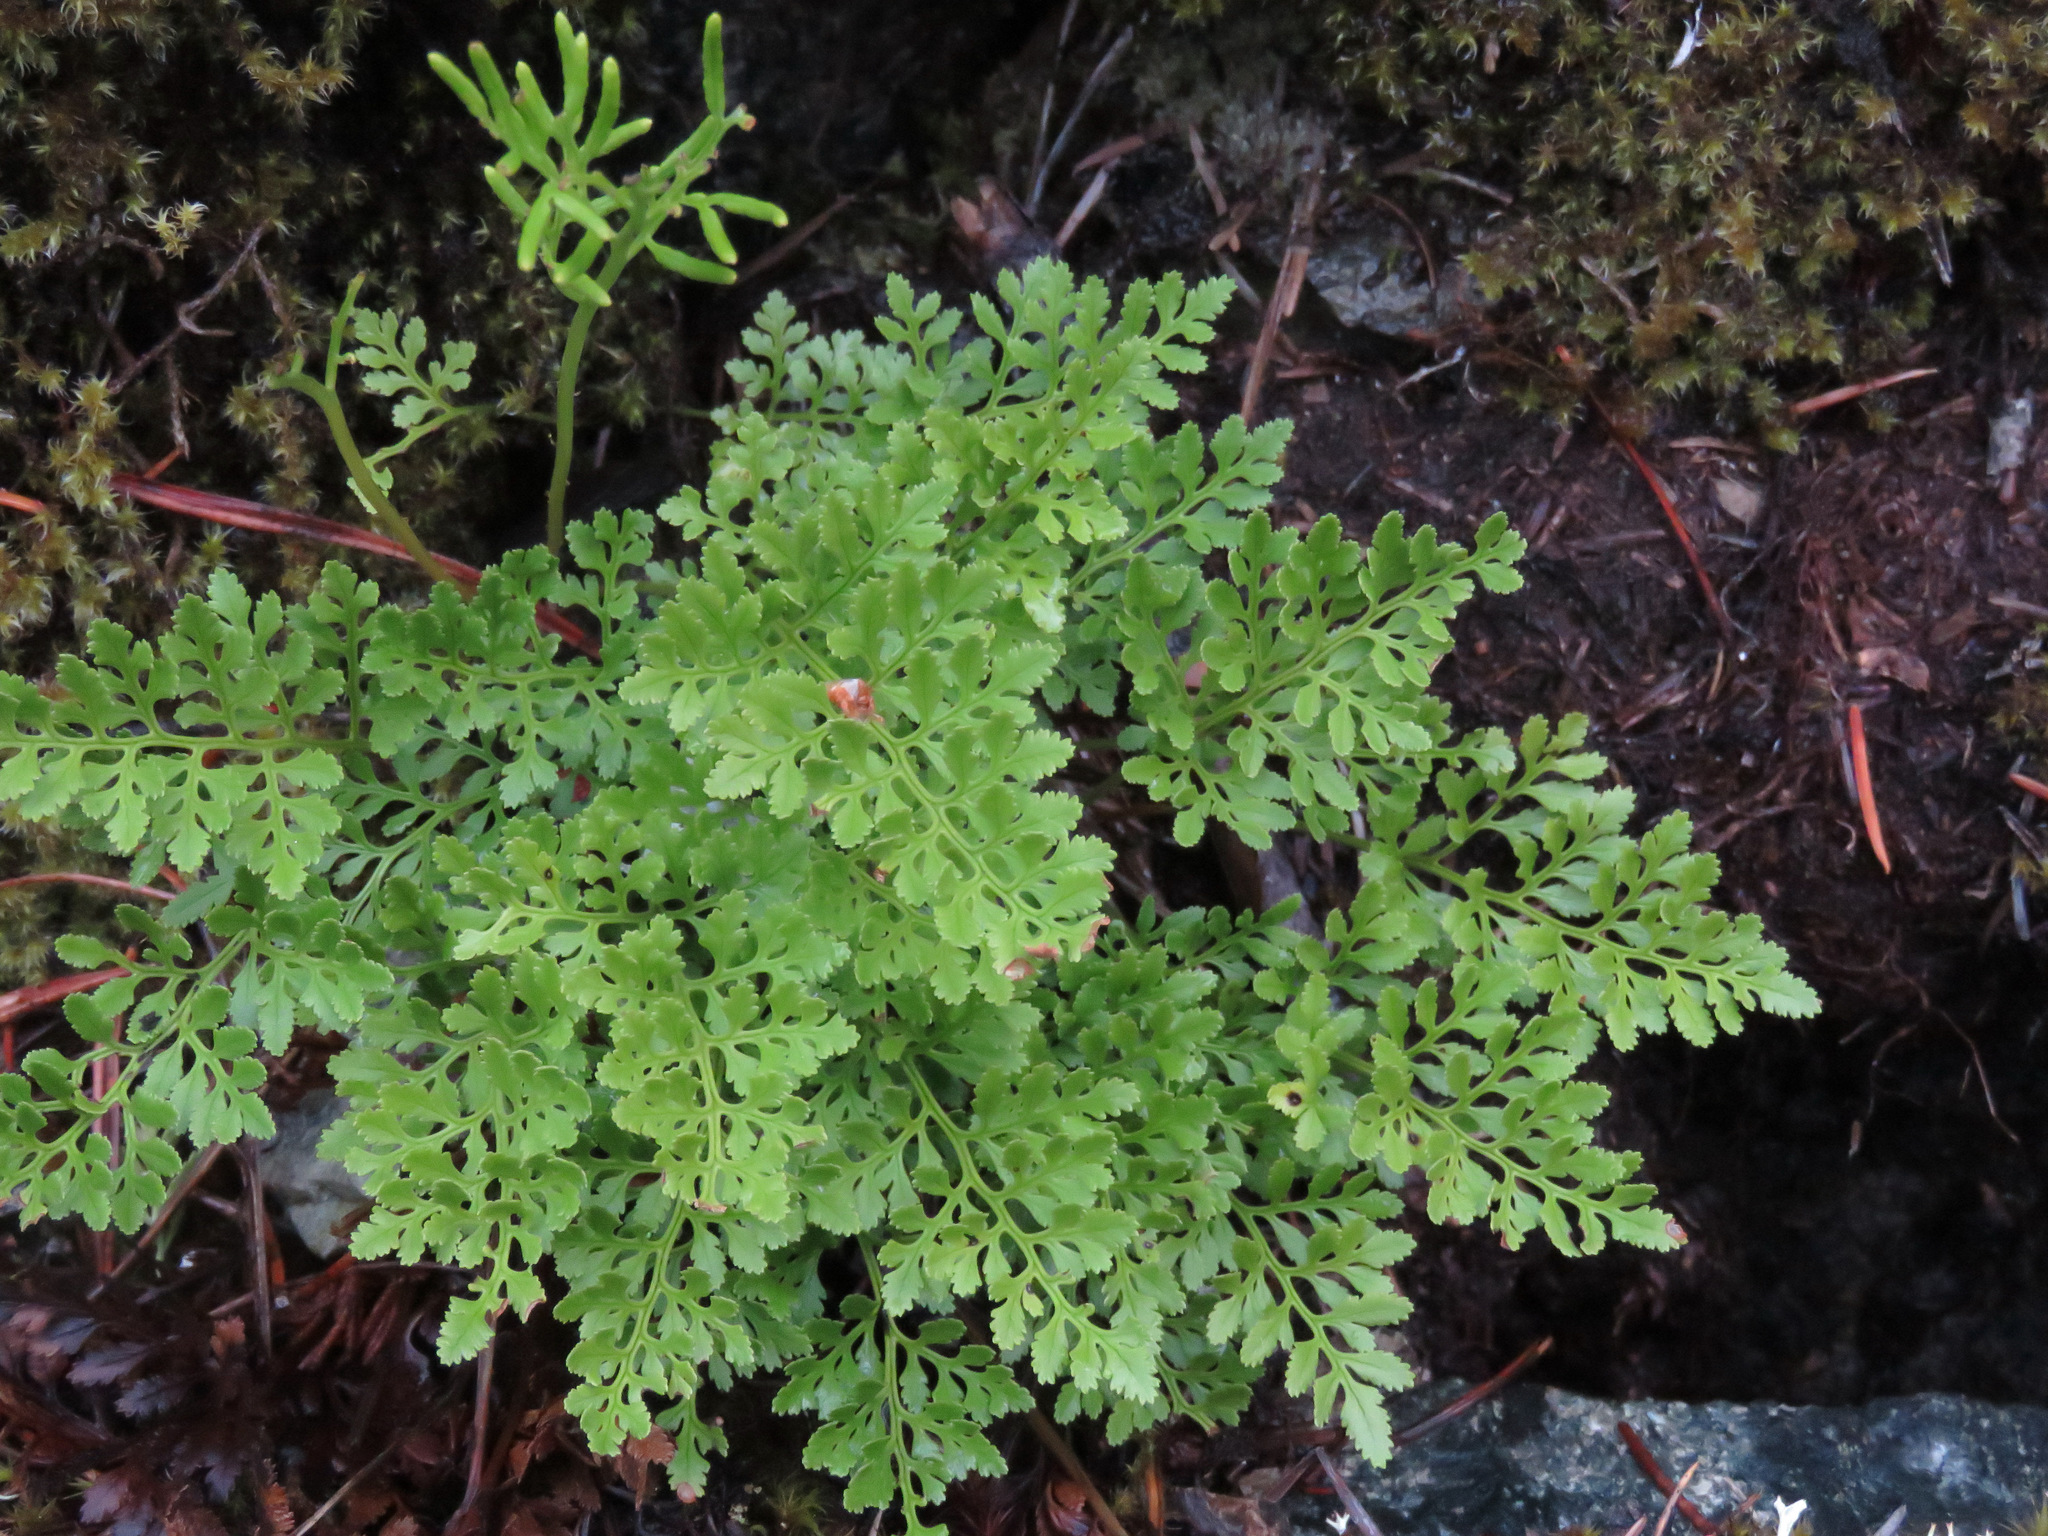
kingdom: Plantae
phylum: Tracheophyta
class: Polypodiopsida
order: Polypodiales
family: Pteridaceae
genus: Cryptogramma
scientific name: Cryptogramma acrostichoides
